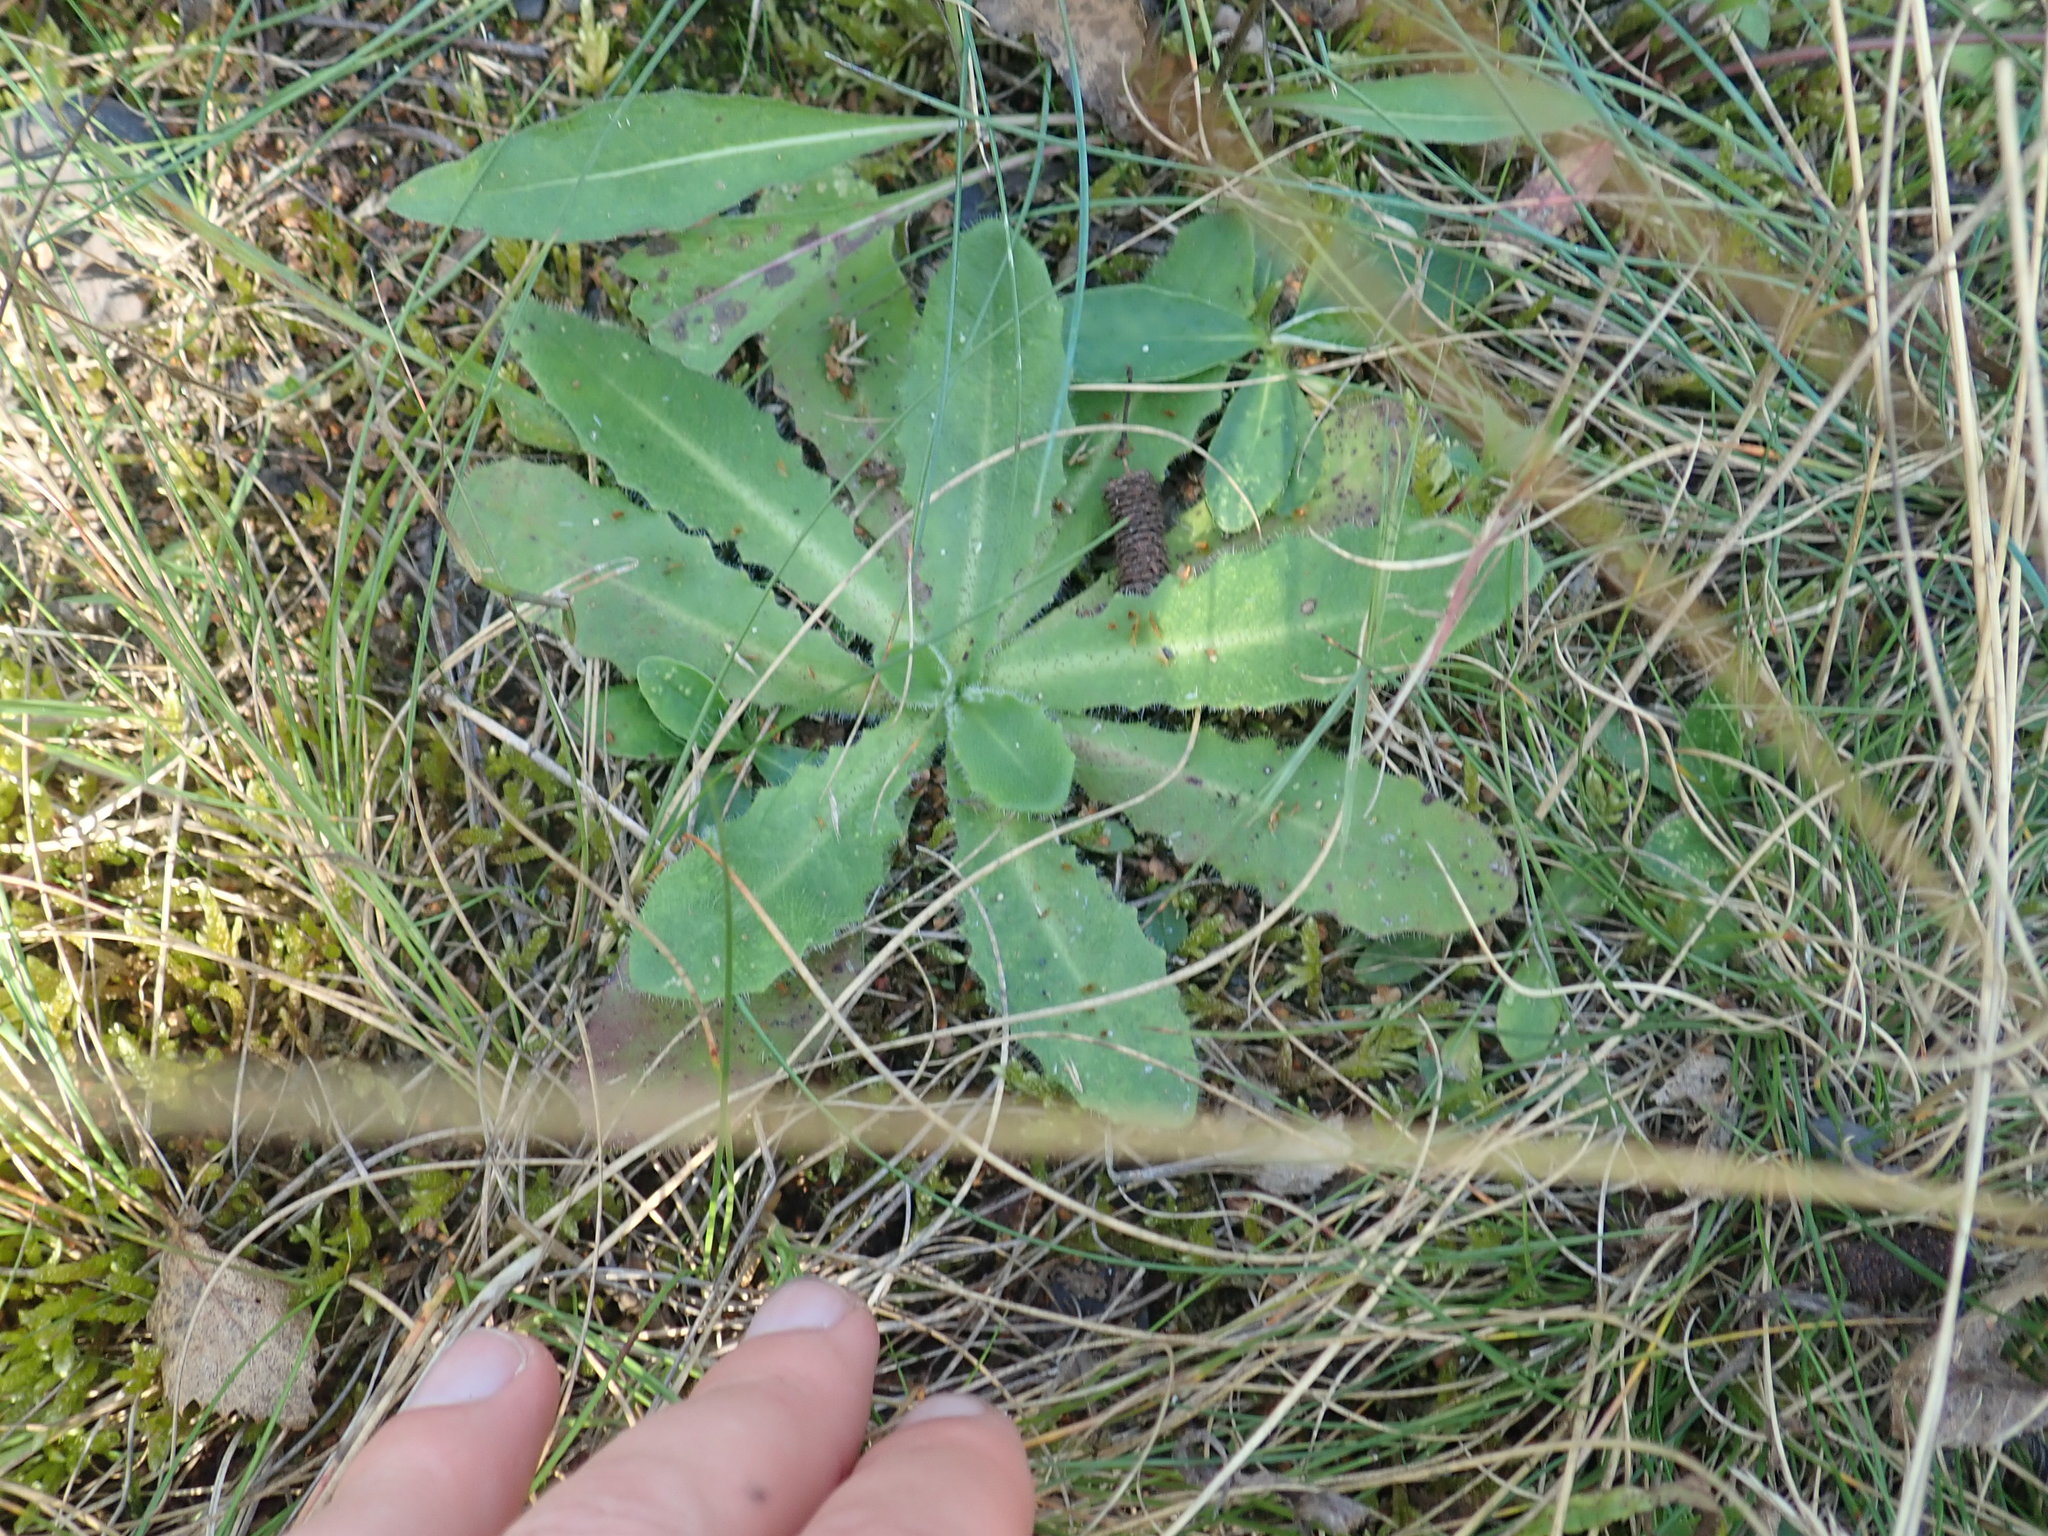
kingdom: Plantae
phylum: Tracheophyta
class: Magnoliopsida
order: Asterales
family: Asteraceae
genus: Hypochaeris
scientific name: Hypochaeris radicata
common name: Flatweed
